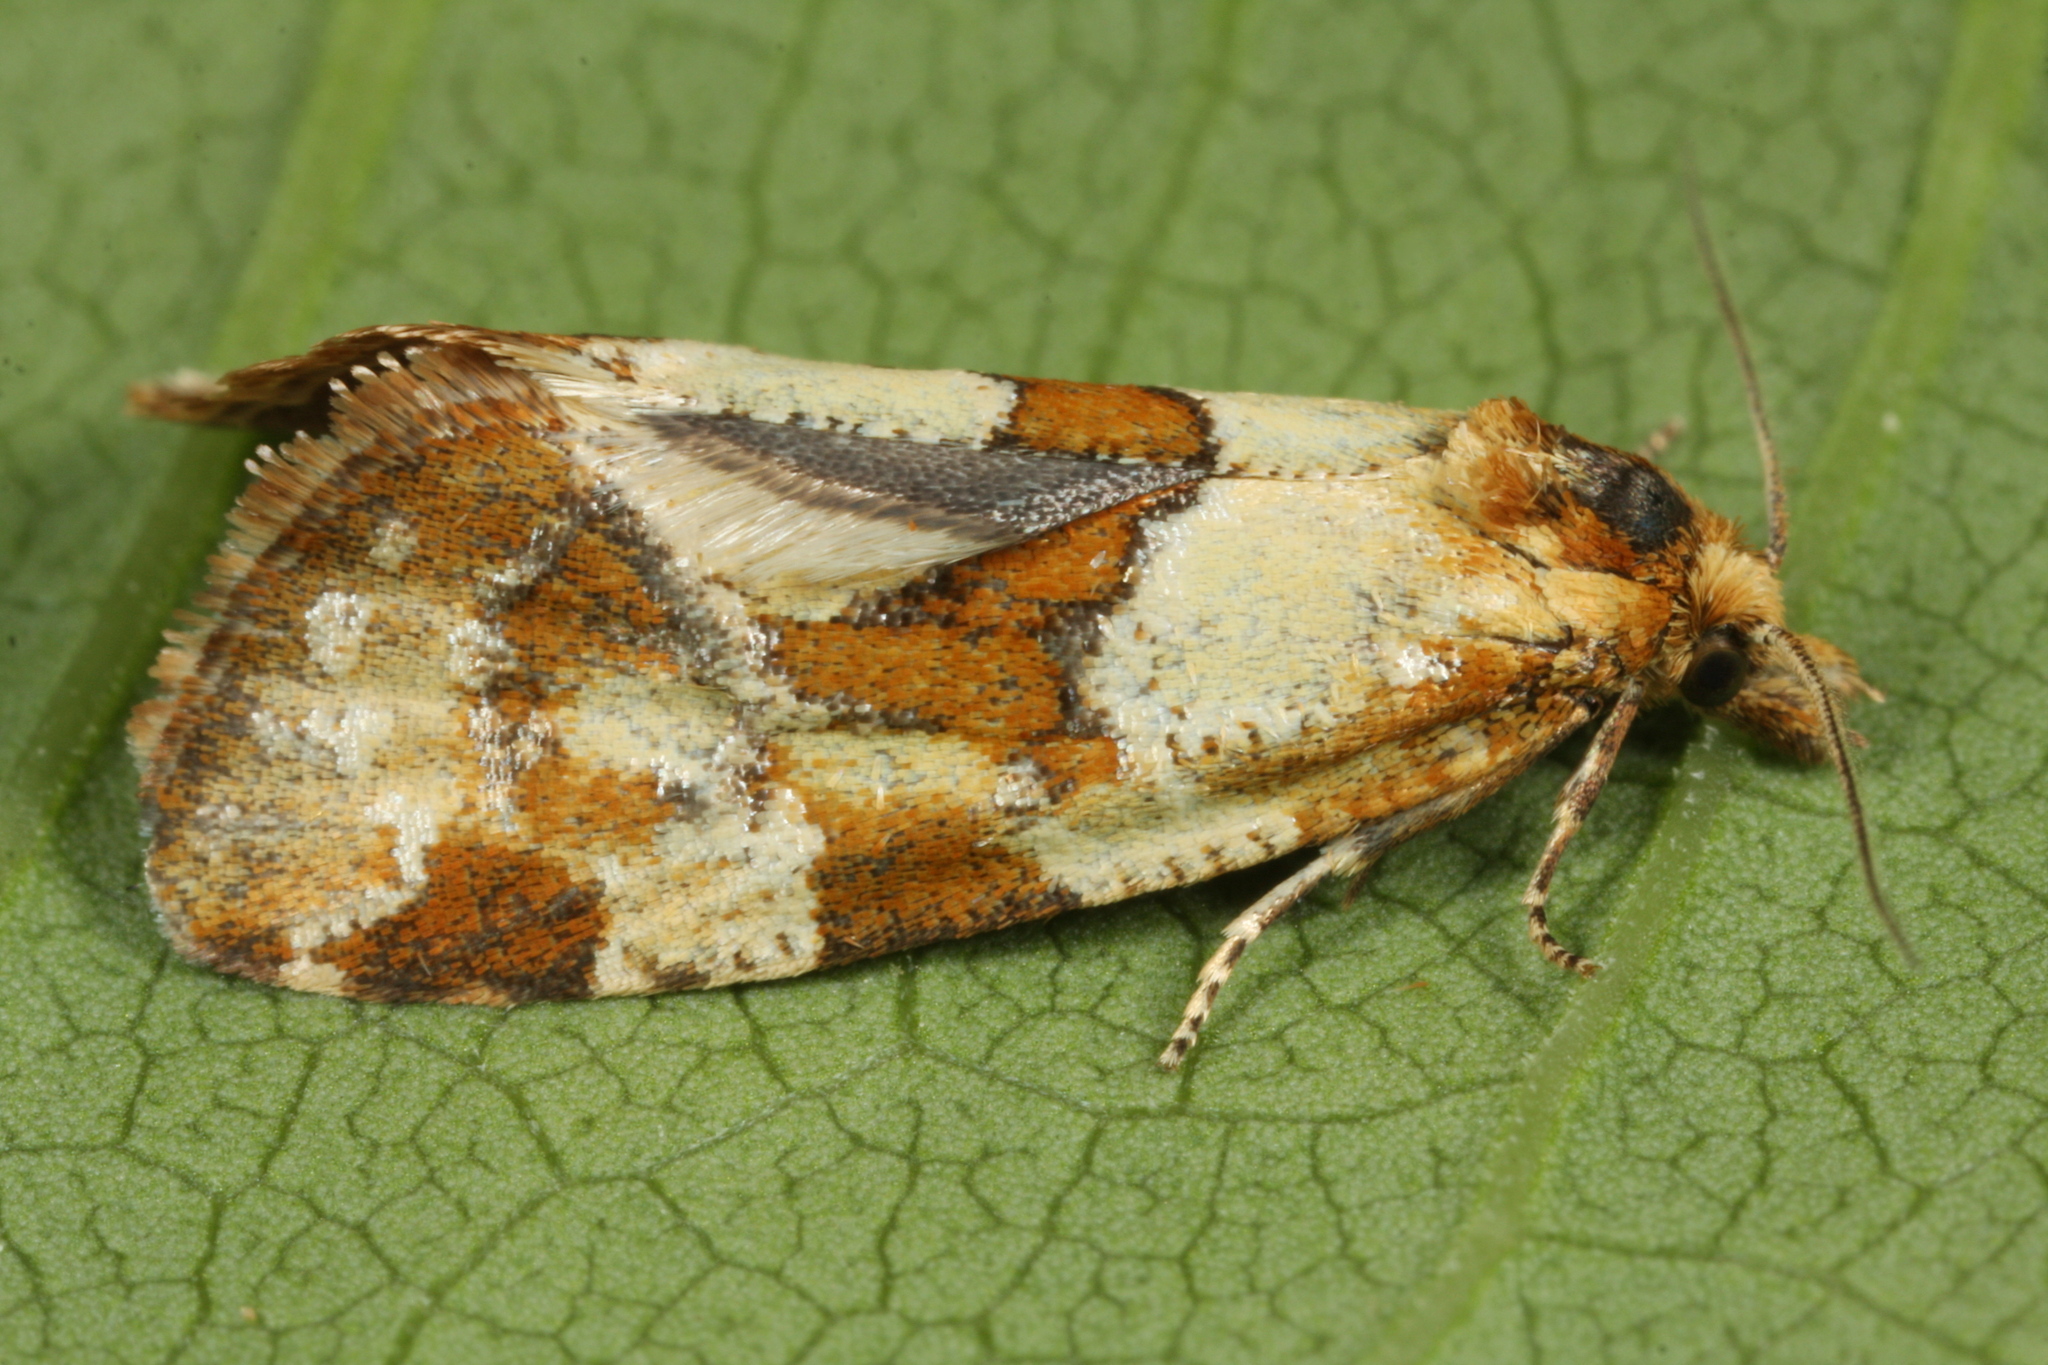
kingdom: Animalia
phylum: Arthropoda
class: Insecta
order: Lepidoptera
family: Tortricidae
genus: Aethes
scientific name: Aethes hartmanniana
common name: Scabious conch
